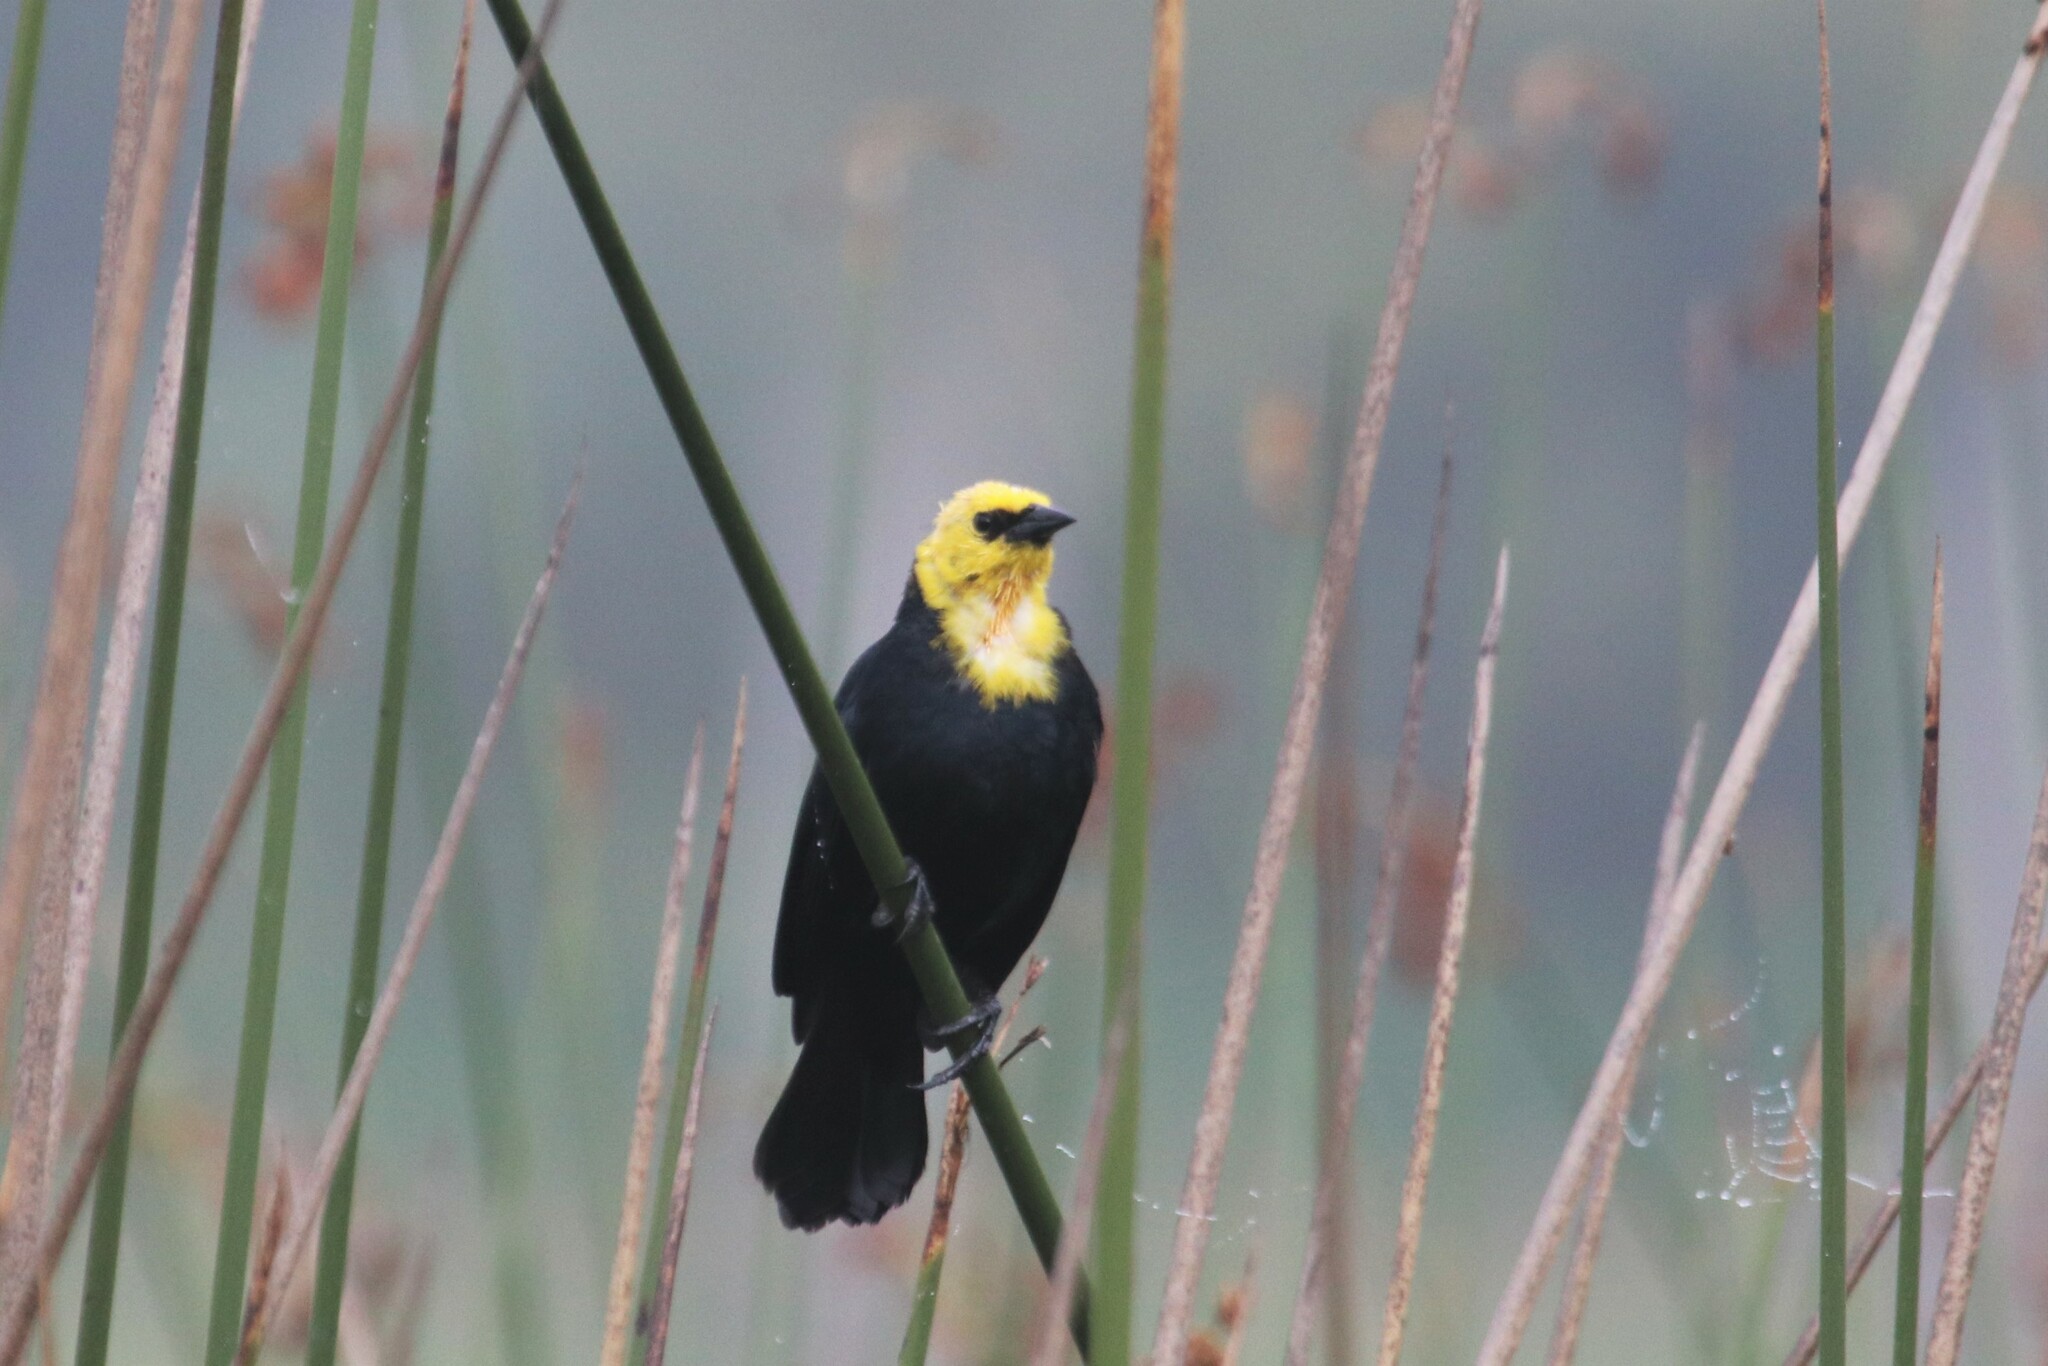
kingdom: Animalia
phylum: Chordata
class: Aves
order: Passeriformes
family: Icteridae
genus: Chrysomus
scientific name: Chrysomus icterocephalus
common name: Yellow-hooded blackbird
